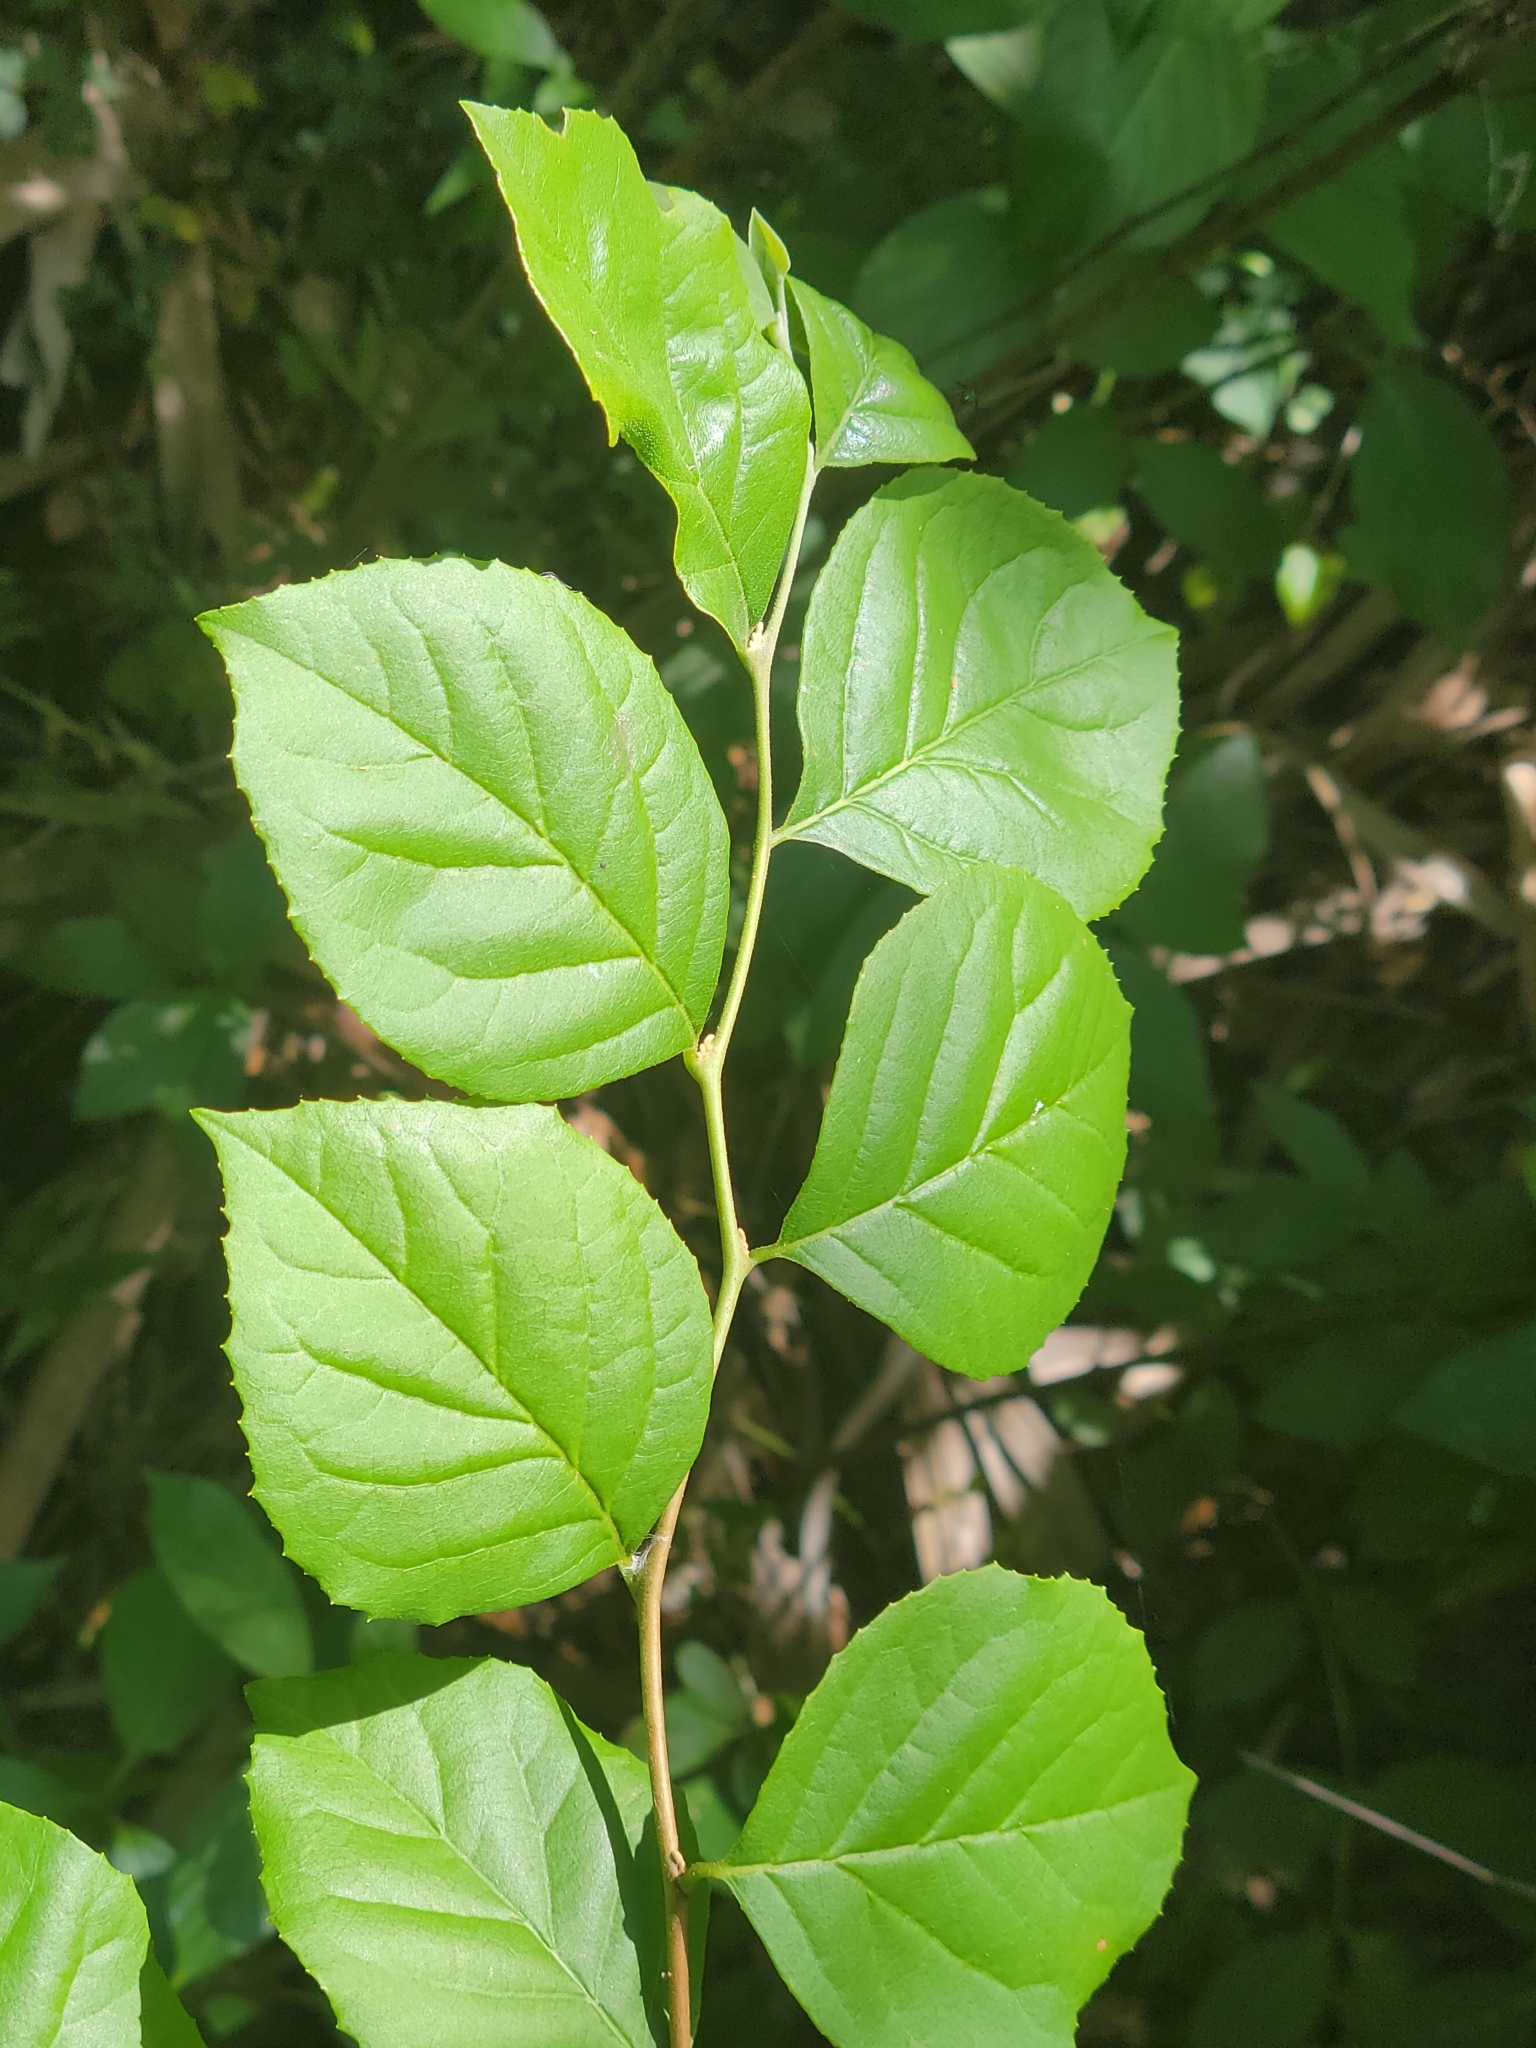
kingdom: Plantae
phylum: Tracheophyta
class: Magnoliopsida
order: Ericales
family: Styracaceae
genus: Styrax
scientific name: Styrax americanus
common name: American snowbell
